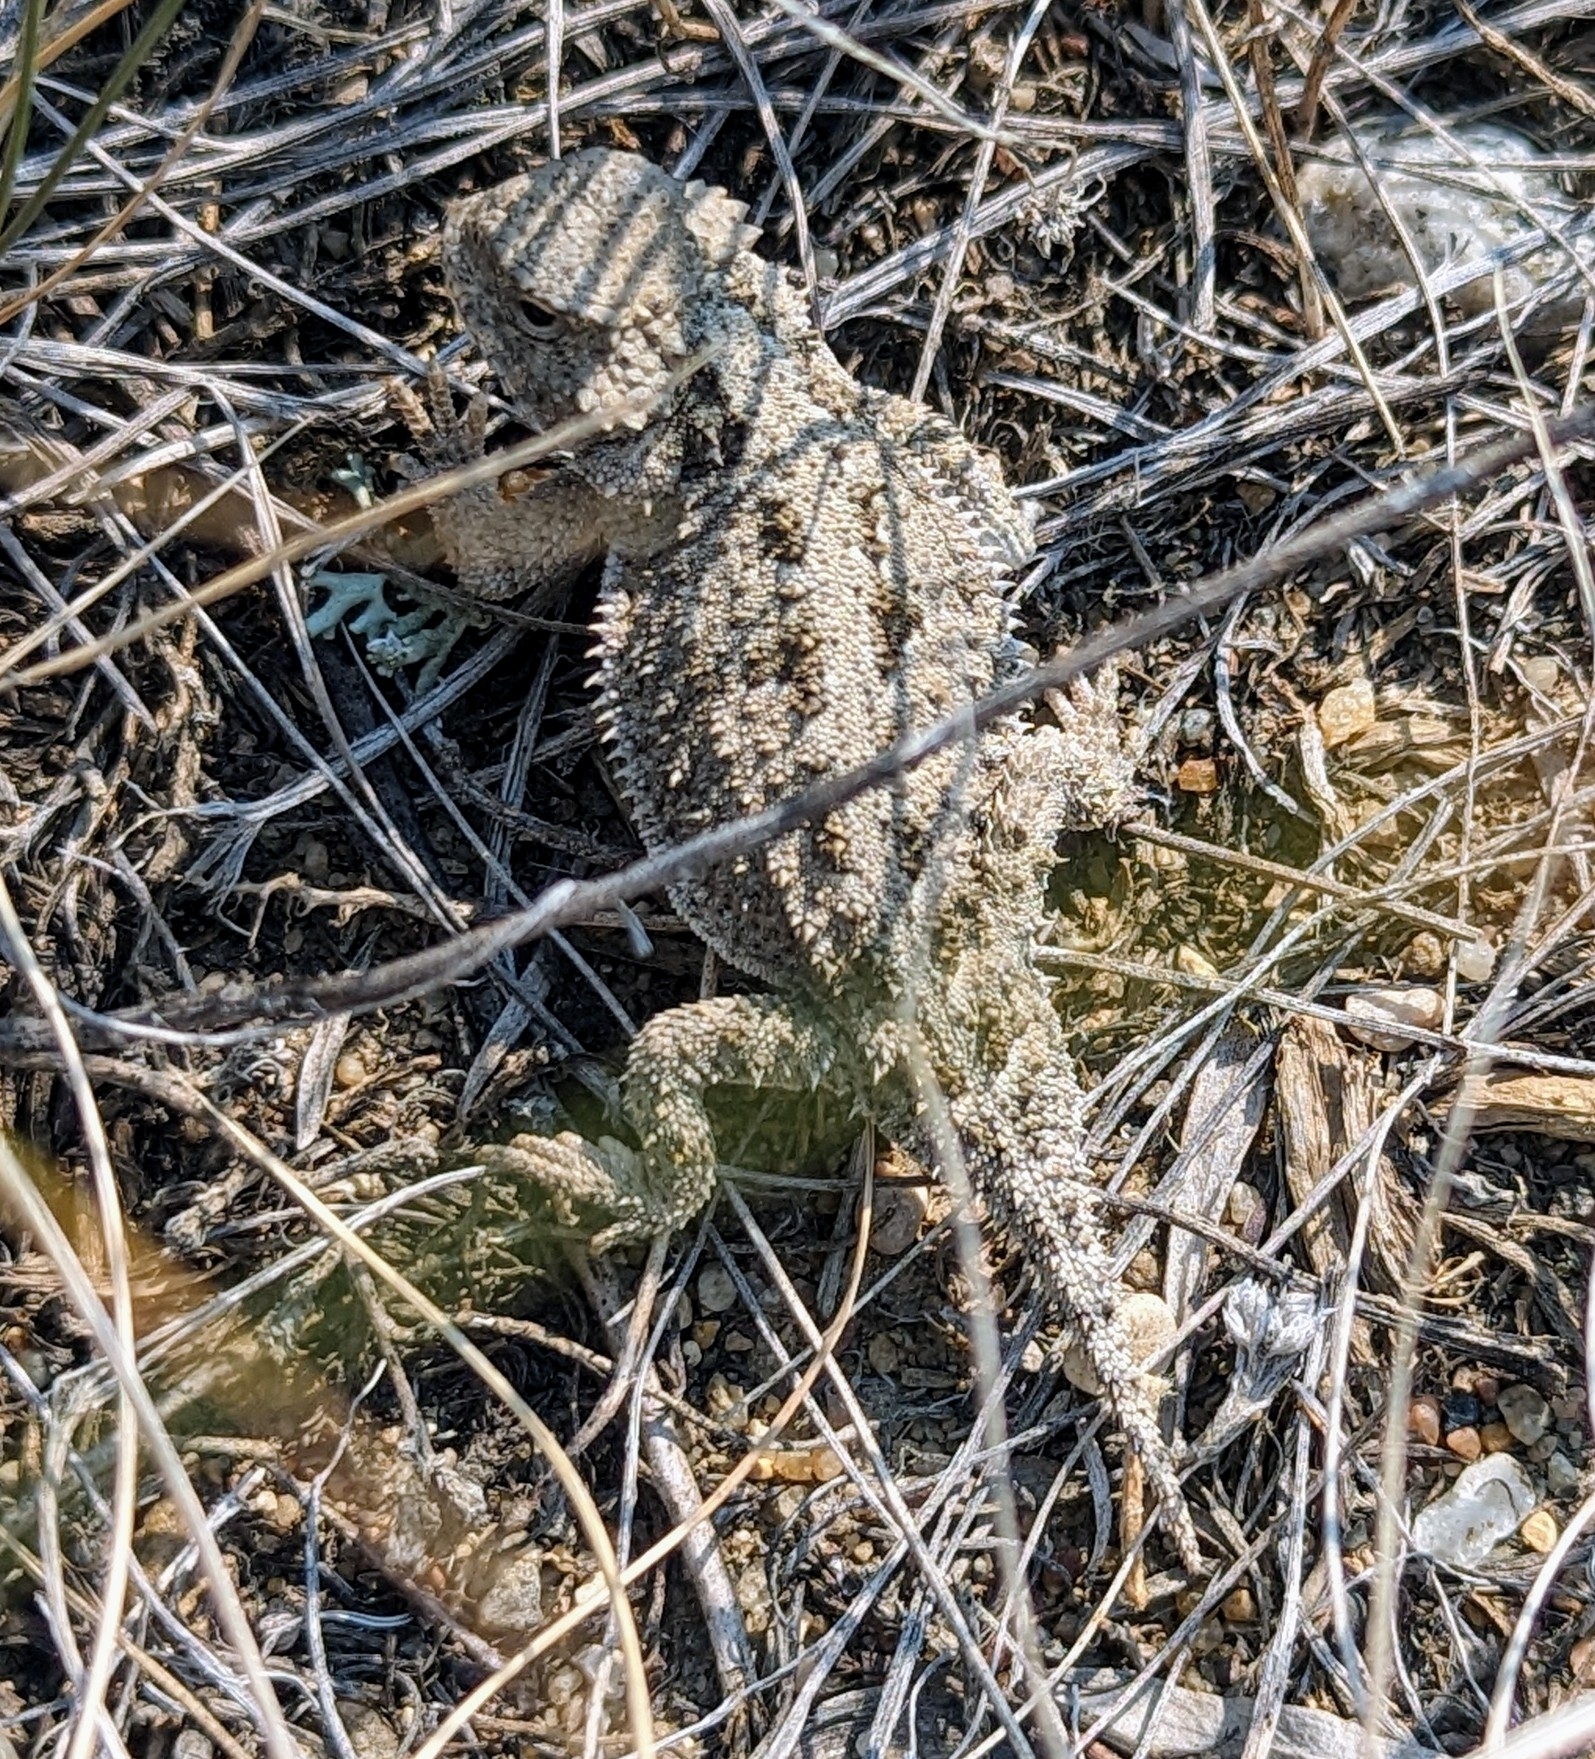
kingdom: Animalia
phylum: Chordata
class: Squamata
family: Phrynosomatidae
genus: Phrynosoma
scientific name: Phrynosoma hernandesi
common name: Greater short-horned lizard
